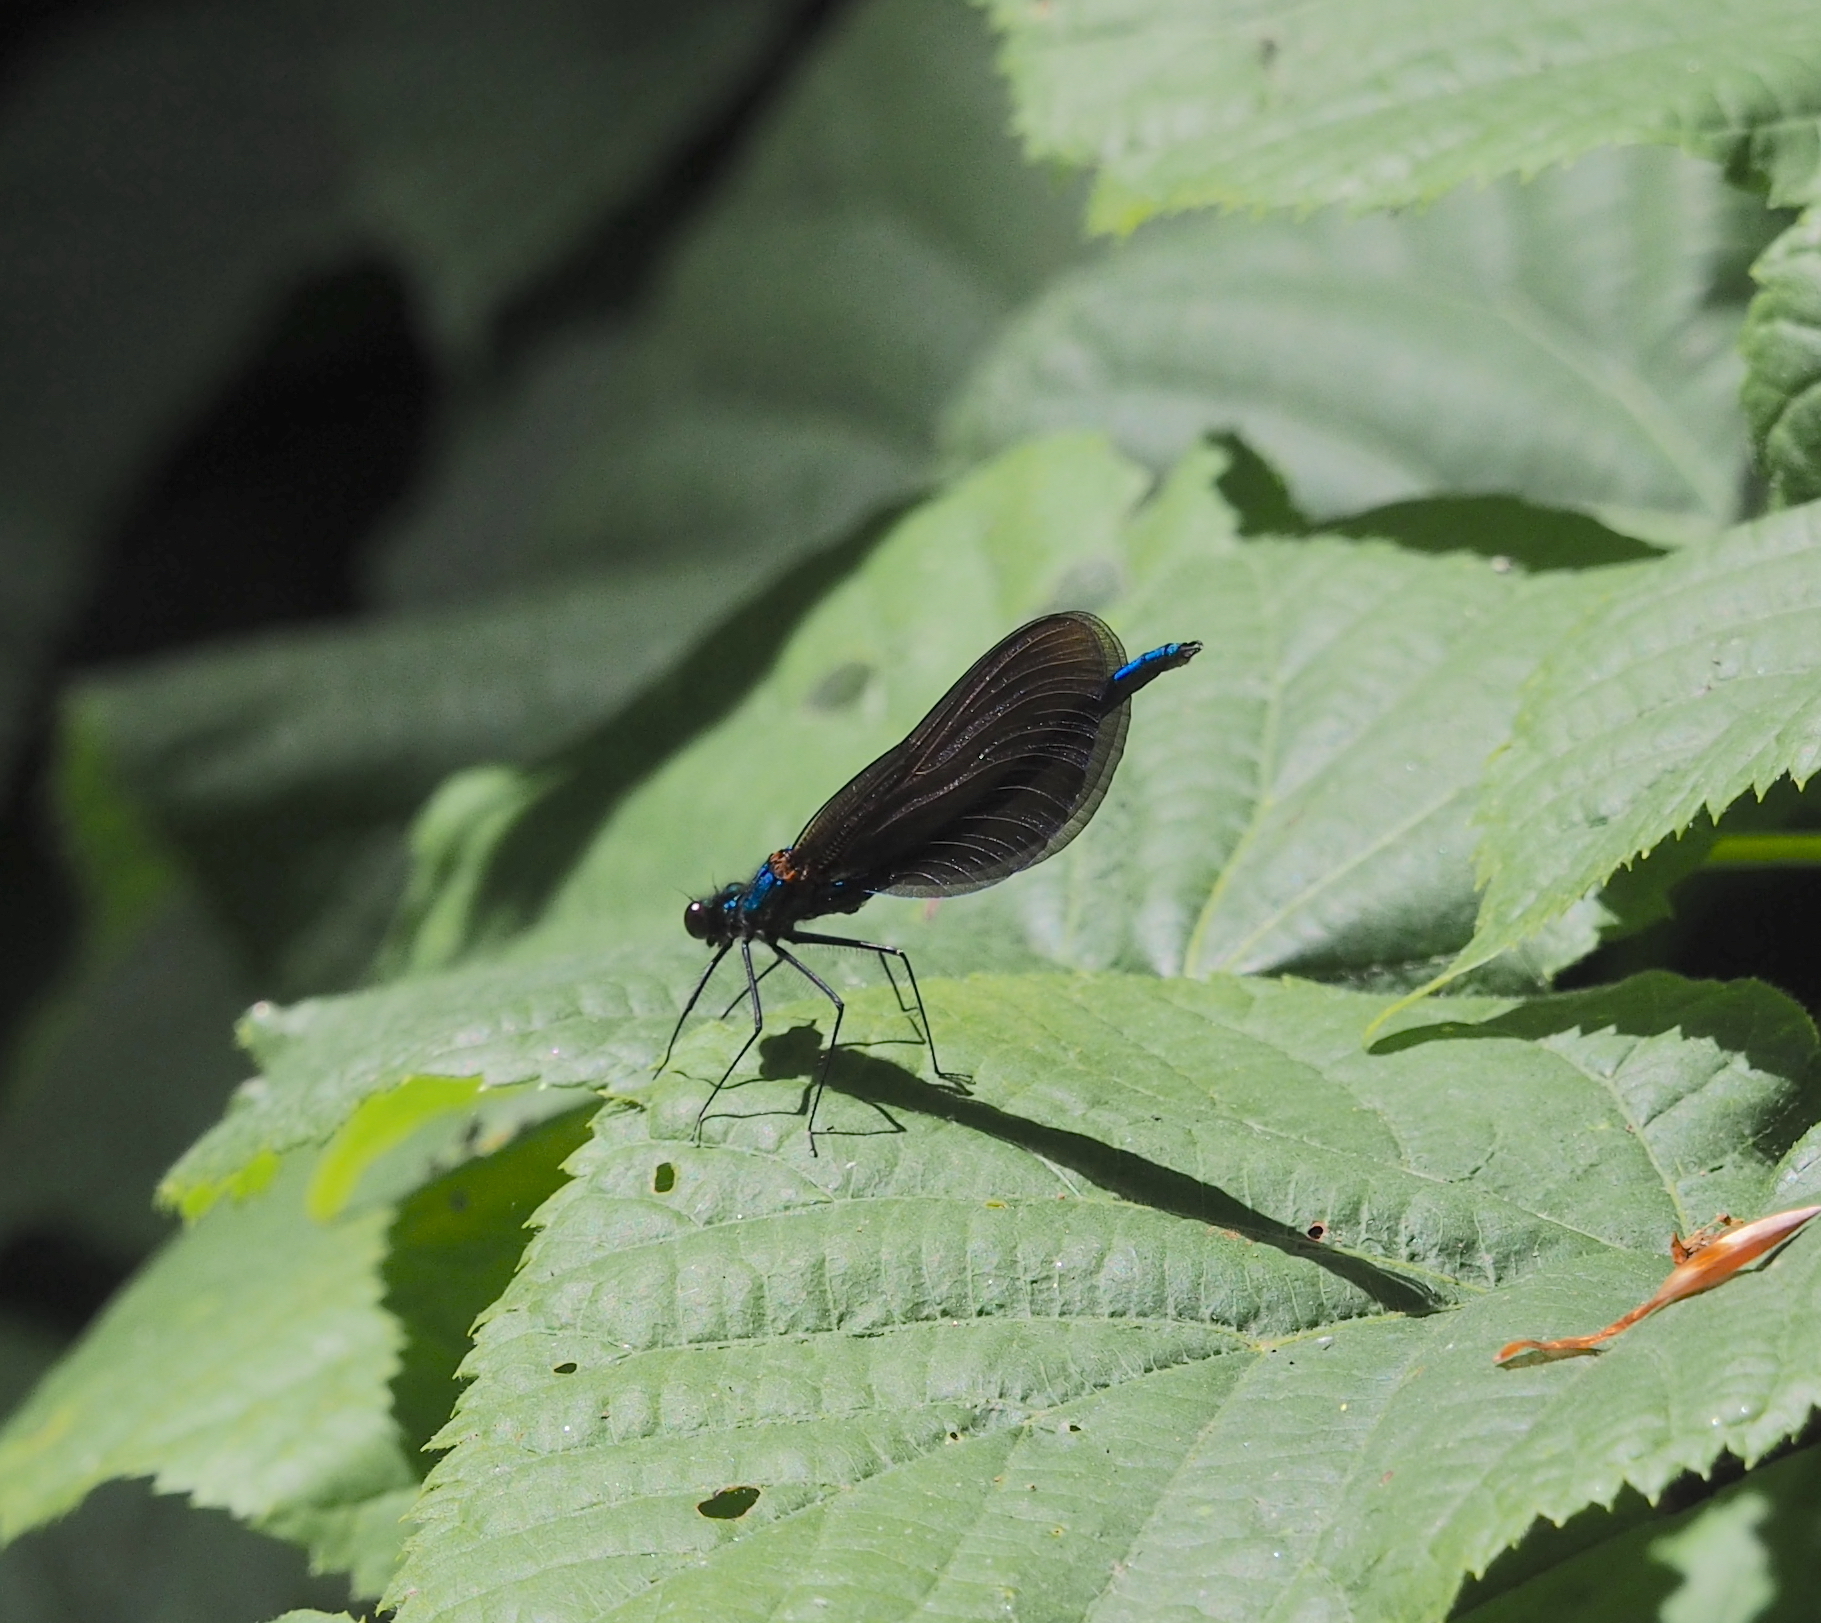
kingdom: Animalia
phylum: Arthropoda
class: Insecta
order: Odonata
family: Calopterygidae
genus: Calopteryx
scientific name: Calopteryx virgo
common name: Beautiful demoiselle
